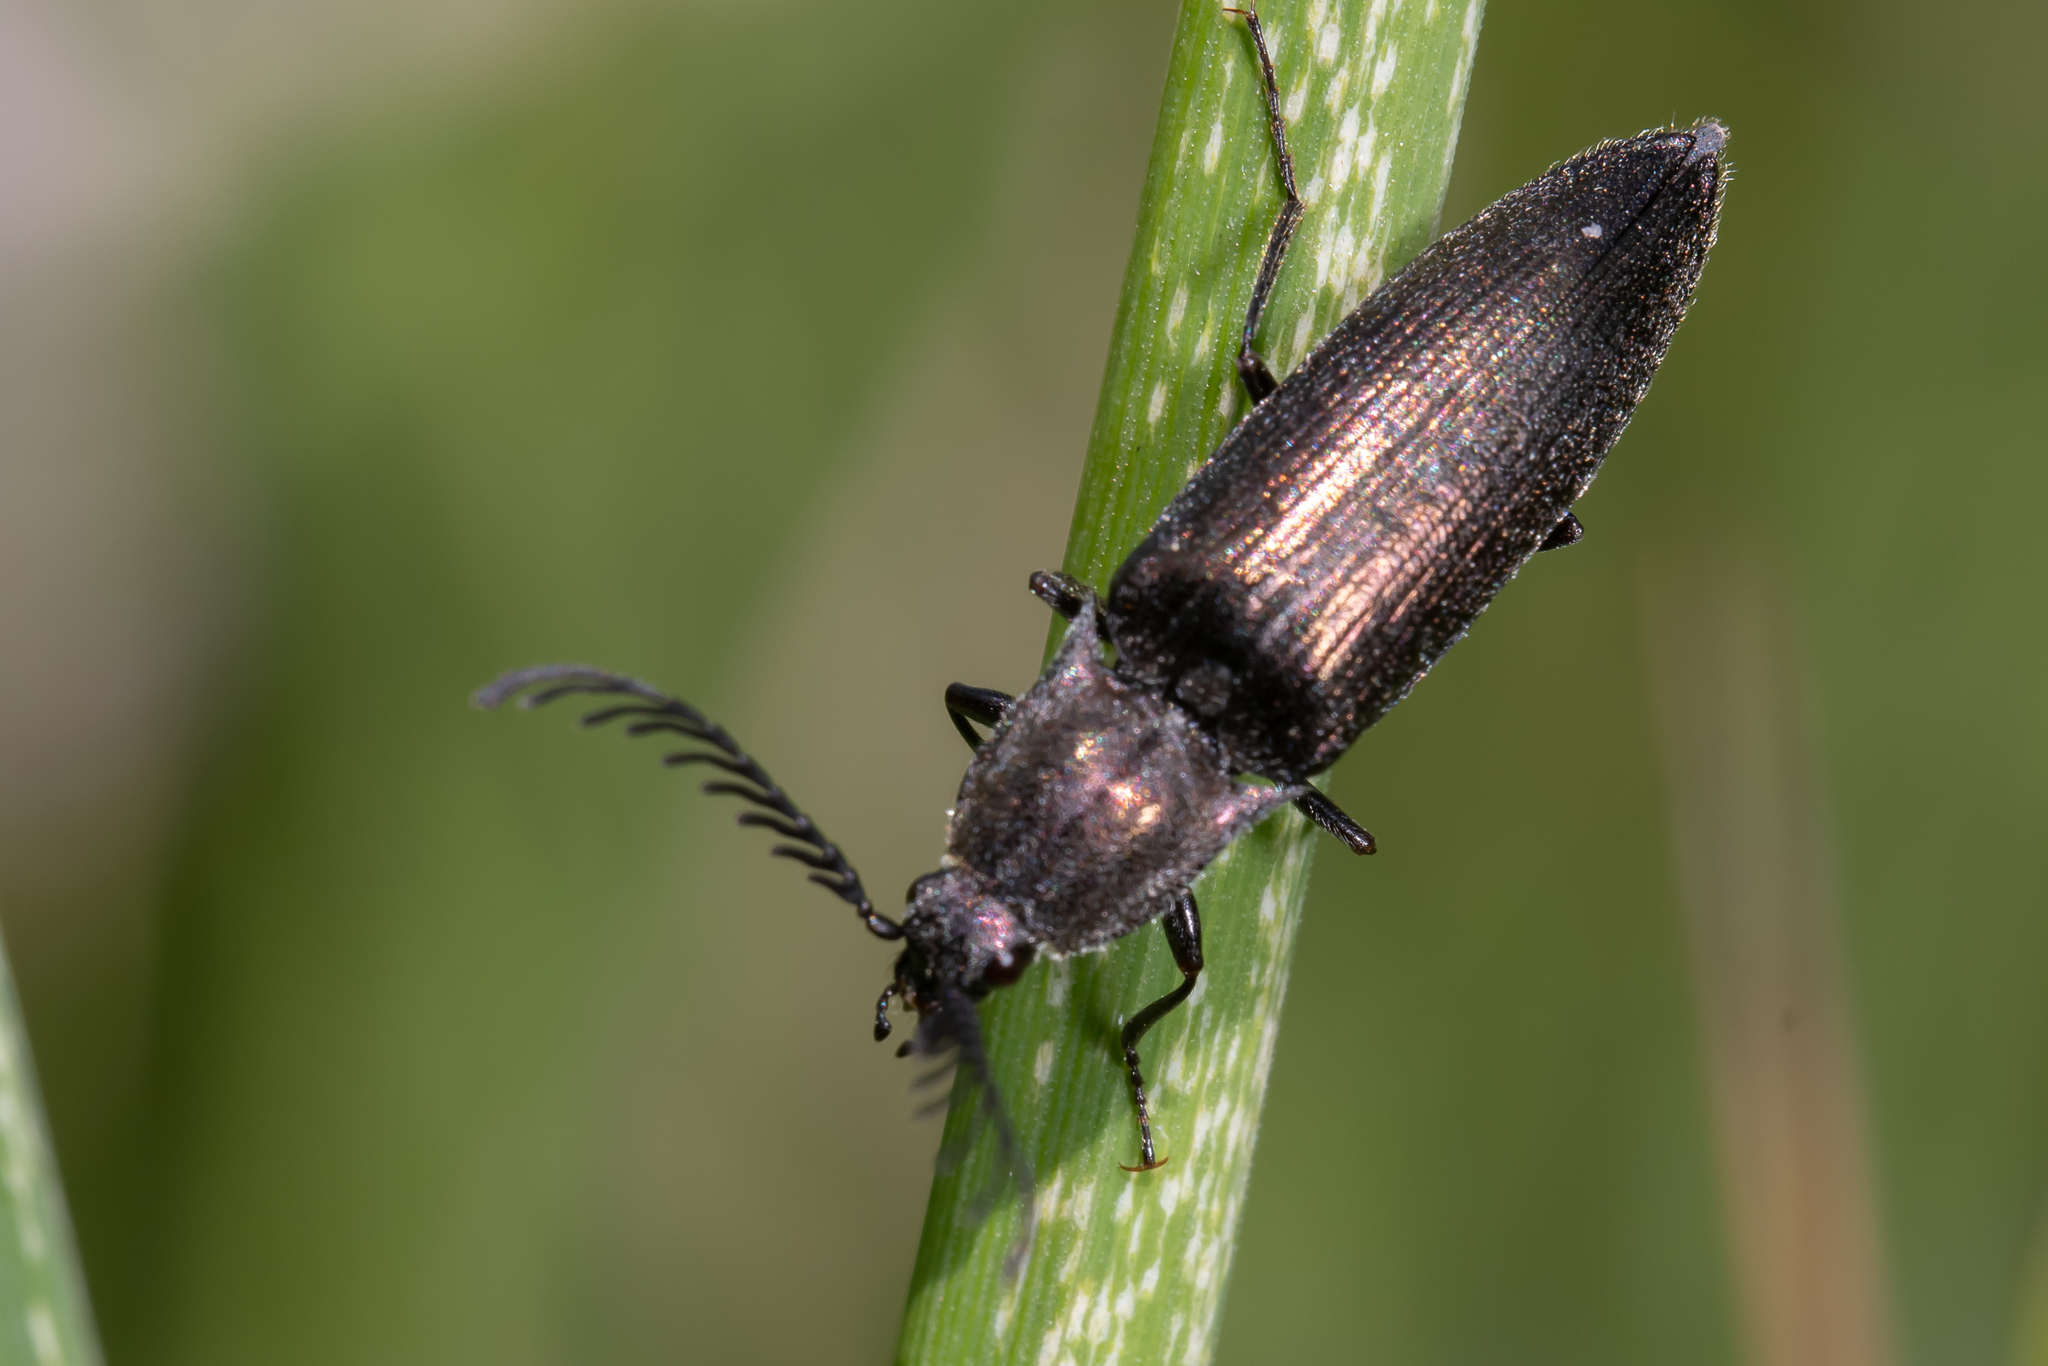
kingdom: Animalia
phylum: Arthropoda
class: Insecta
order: Coleoptera
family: Elateridae
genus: Ctenicera
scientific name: Ctenicera pectinicornis
